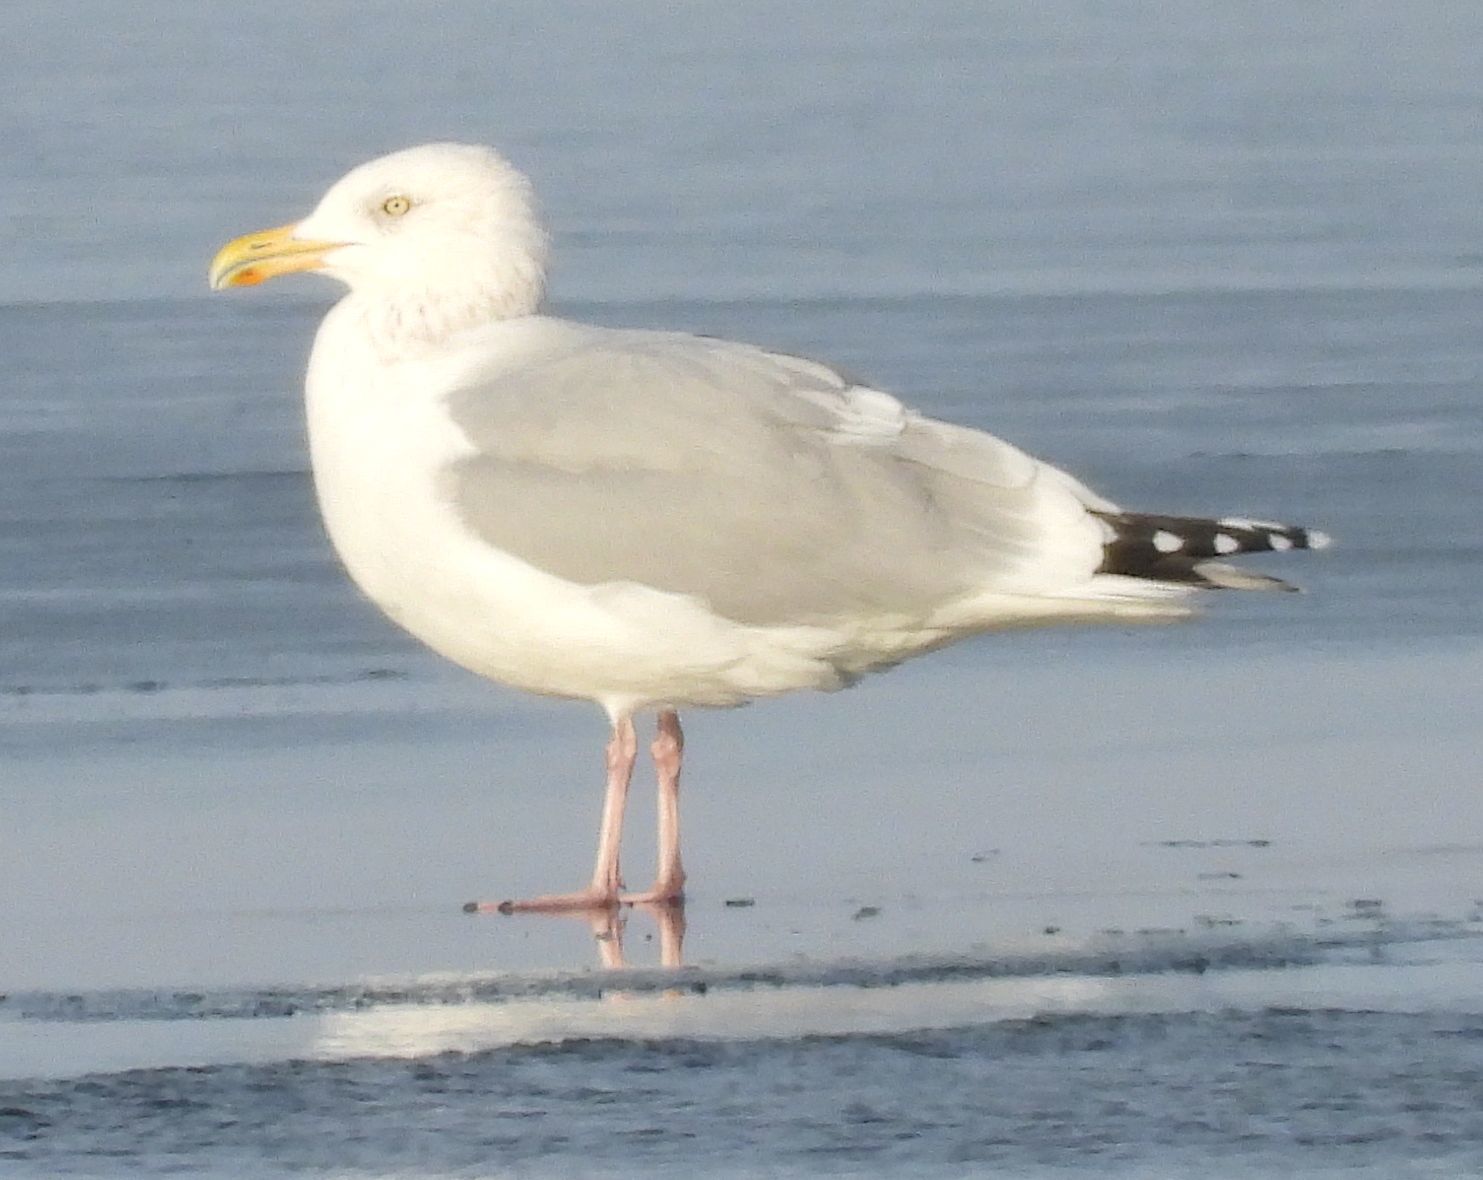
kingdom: Animalia
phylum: Chordata
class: Aves
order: Charadriiformes
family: Laridae
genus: Larus
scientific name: Larus argentatus
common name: Herring gull
